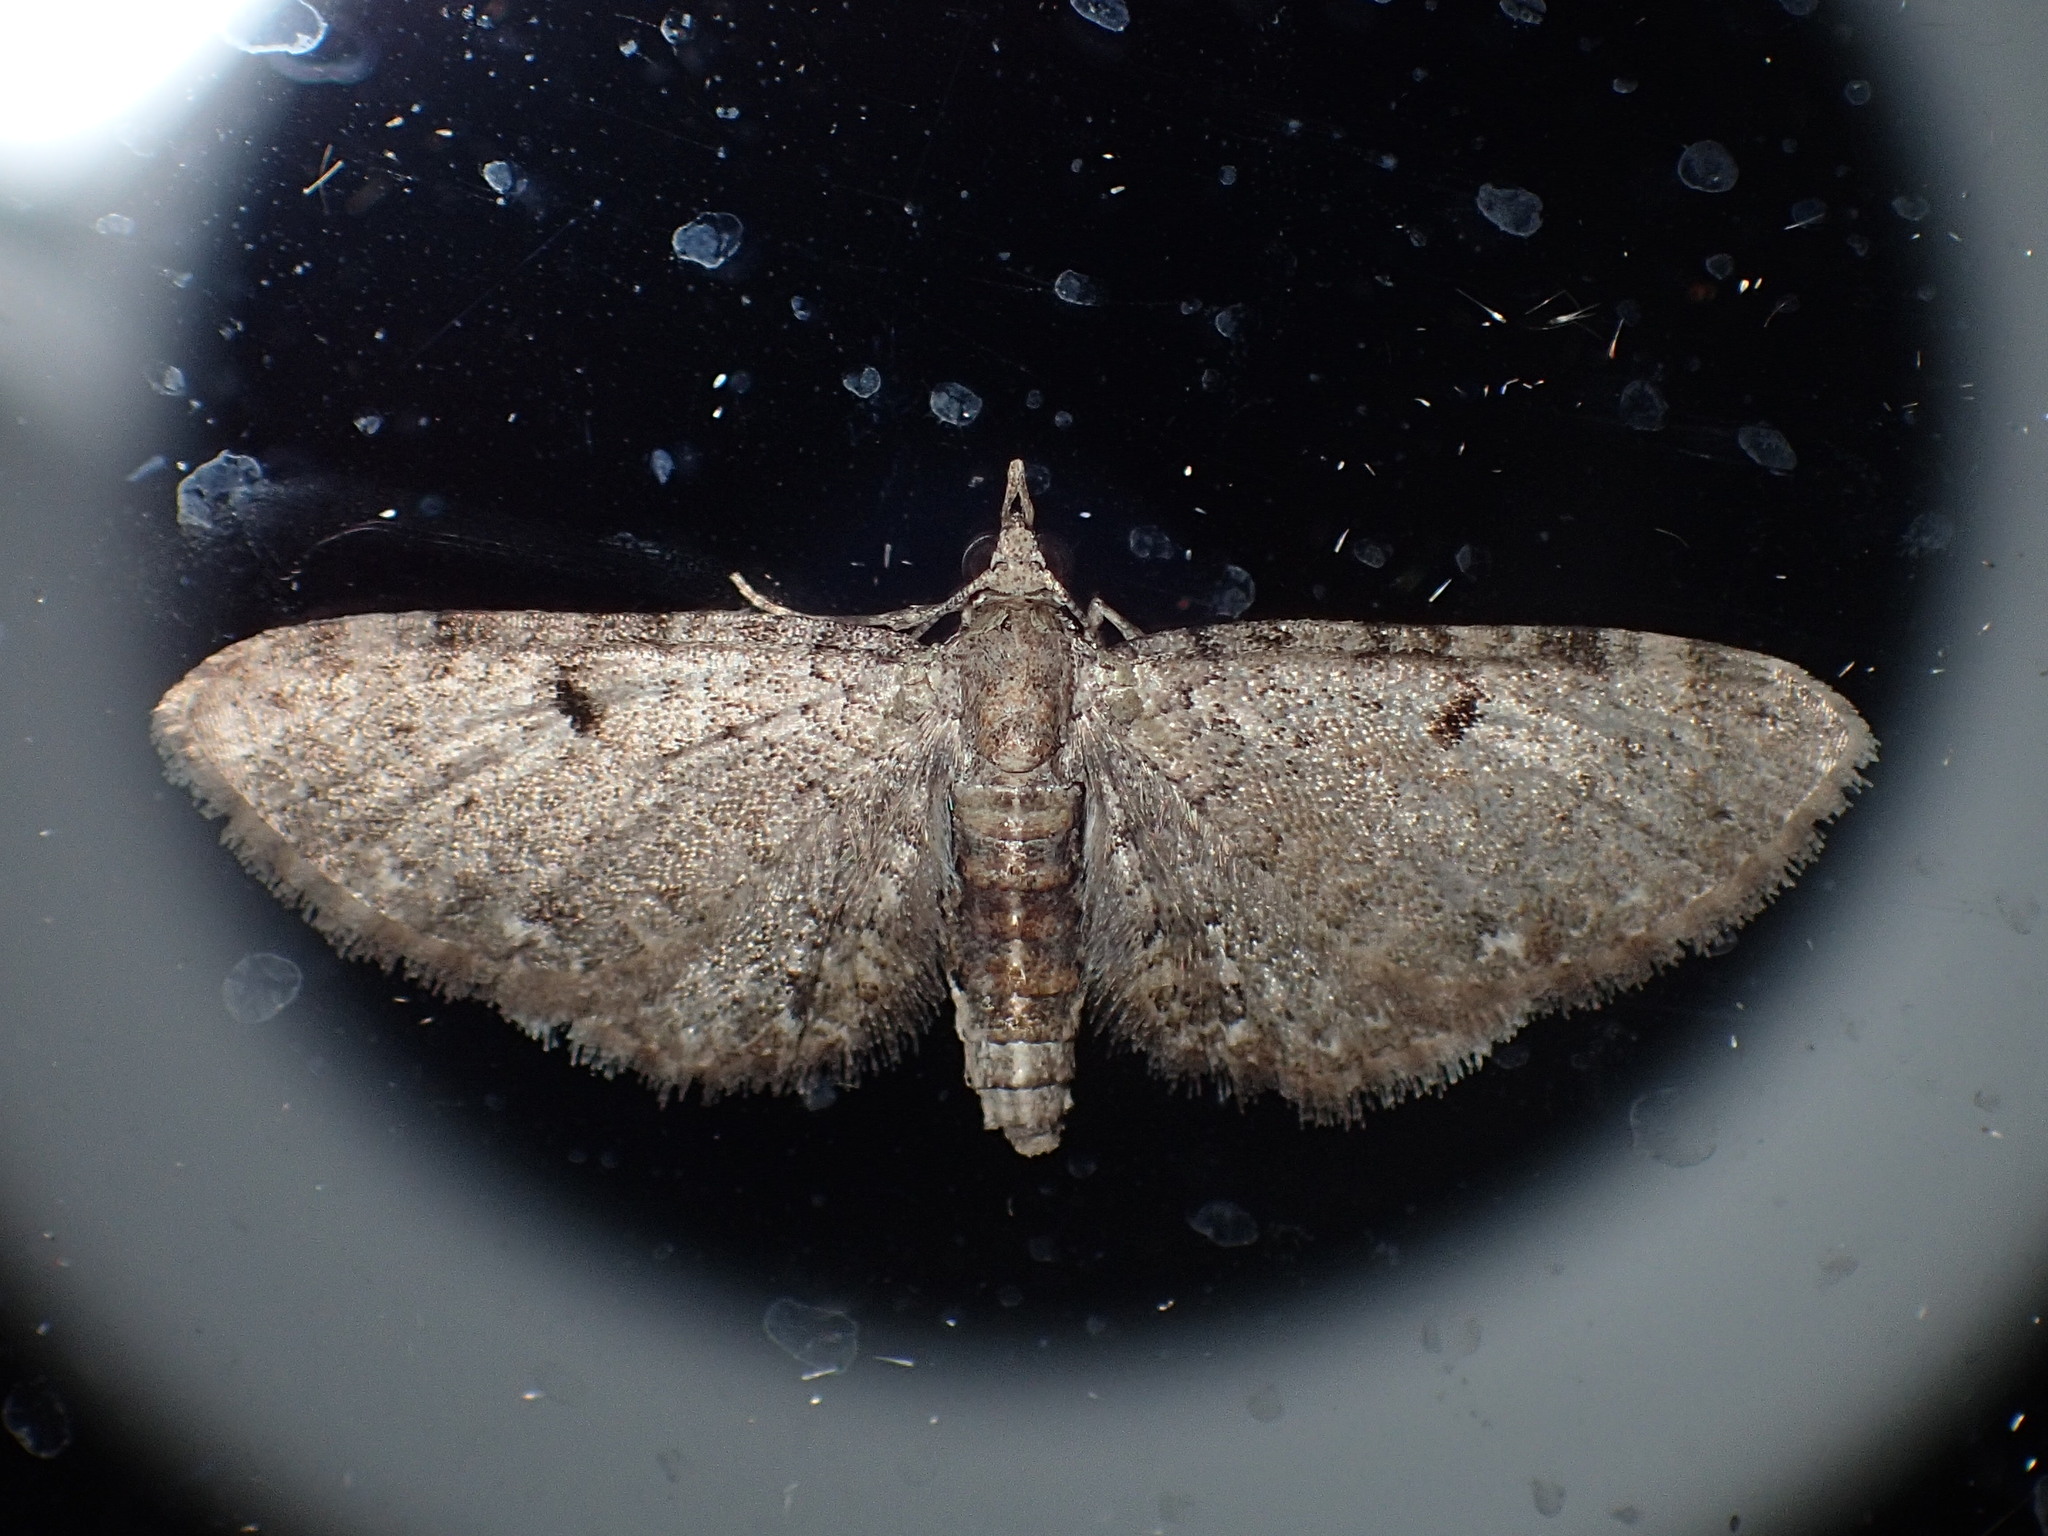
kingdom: Animalia
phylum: Arthropoda
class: Insecta
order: Lepidoptera
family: Geometridae
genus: Eupithecia
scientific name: Eupithecia miserulata
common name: Common eupithecia
